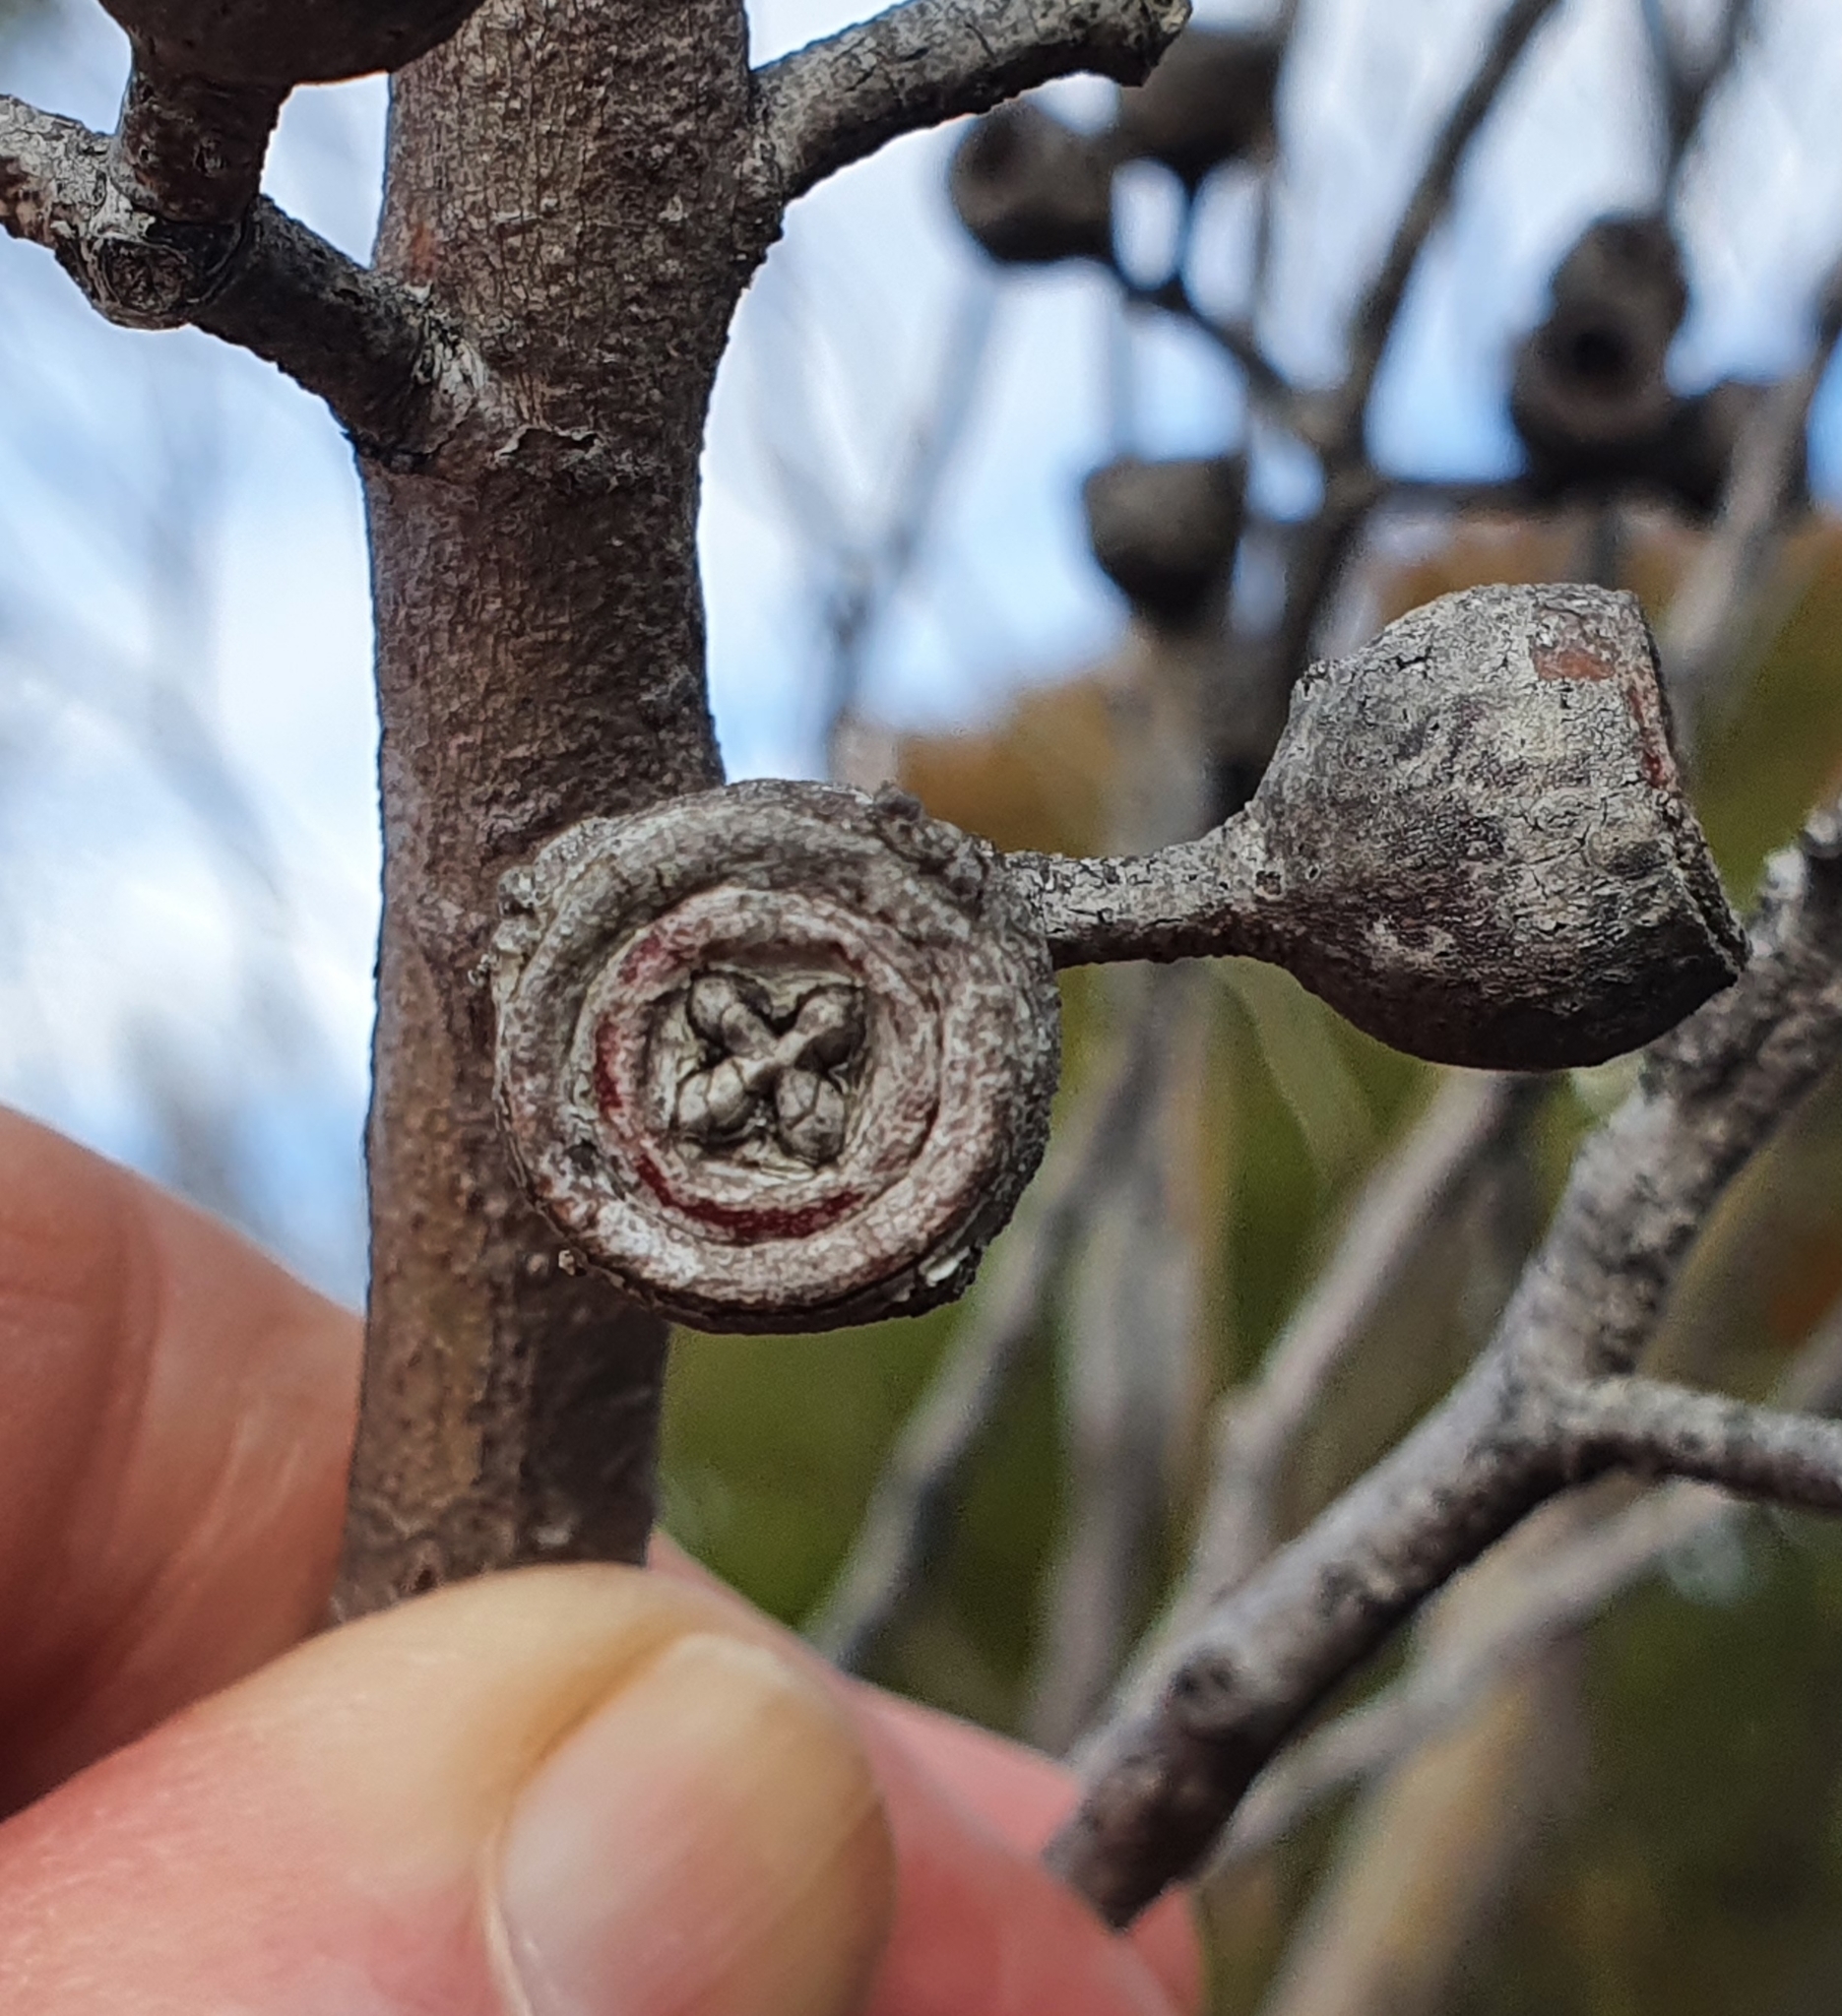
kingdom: Plantae
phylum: Tracheophyta
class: Magnoliopsida
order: Myrtales
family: Myrtaceae
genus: Eucalyptus
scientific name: Eucalyptus burgessiana
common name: Falconbridge mallee-ash
